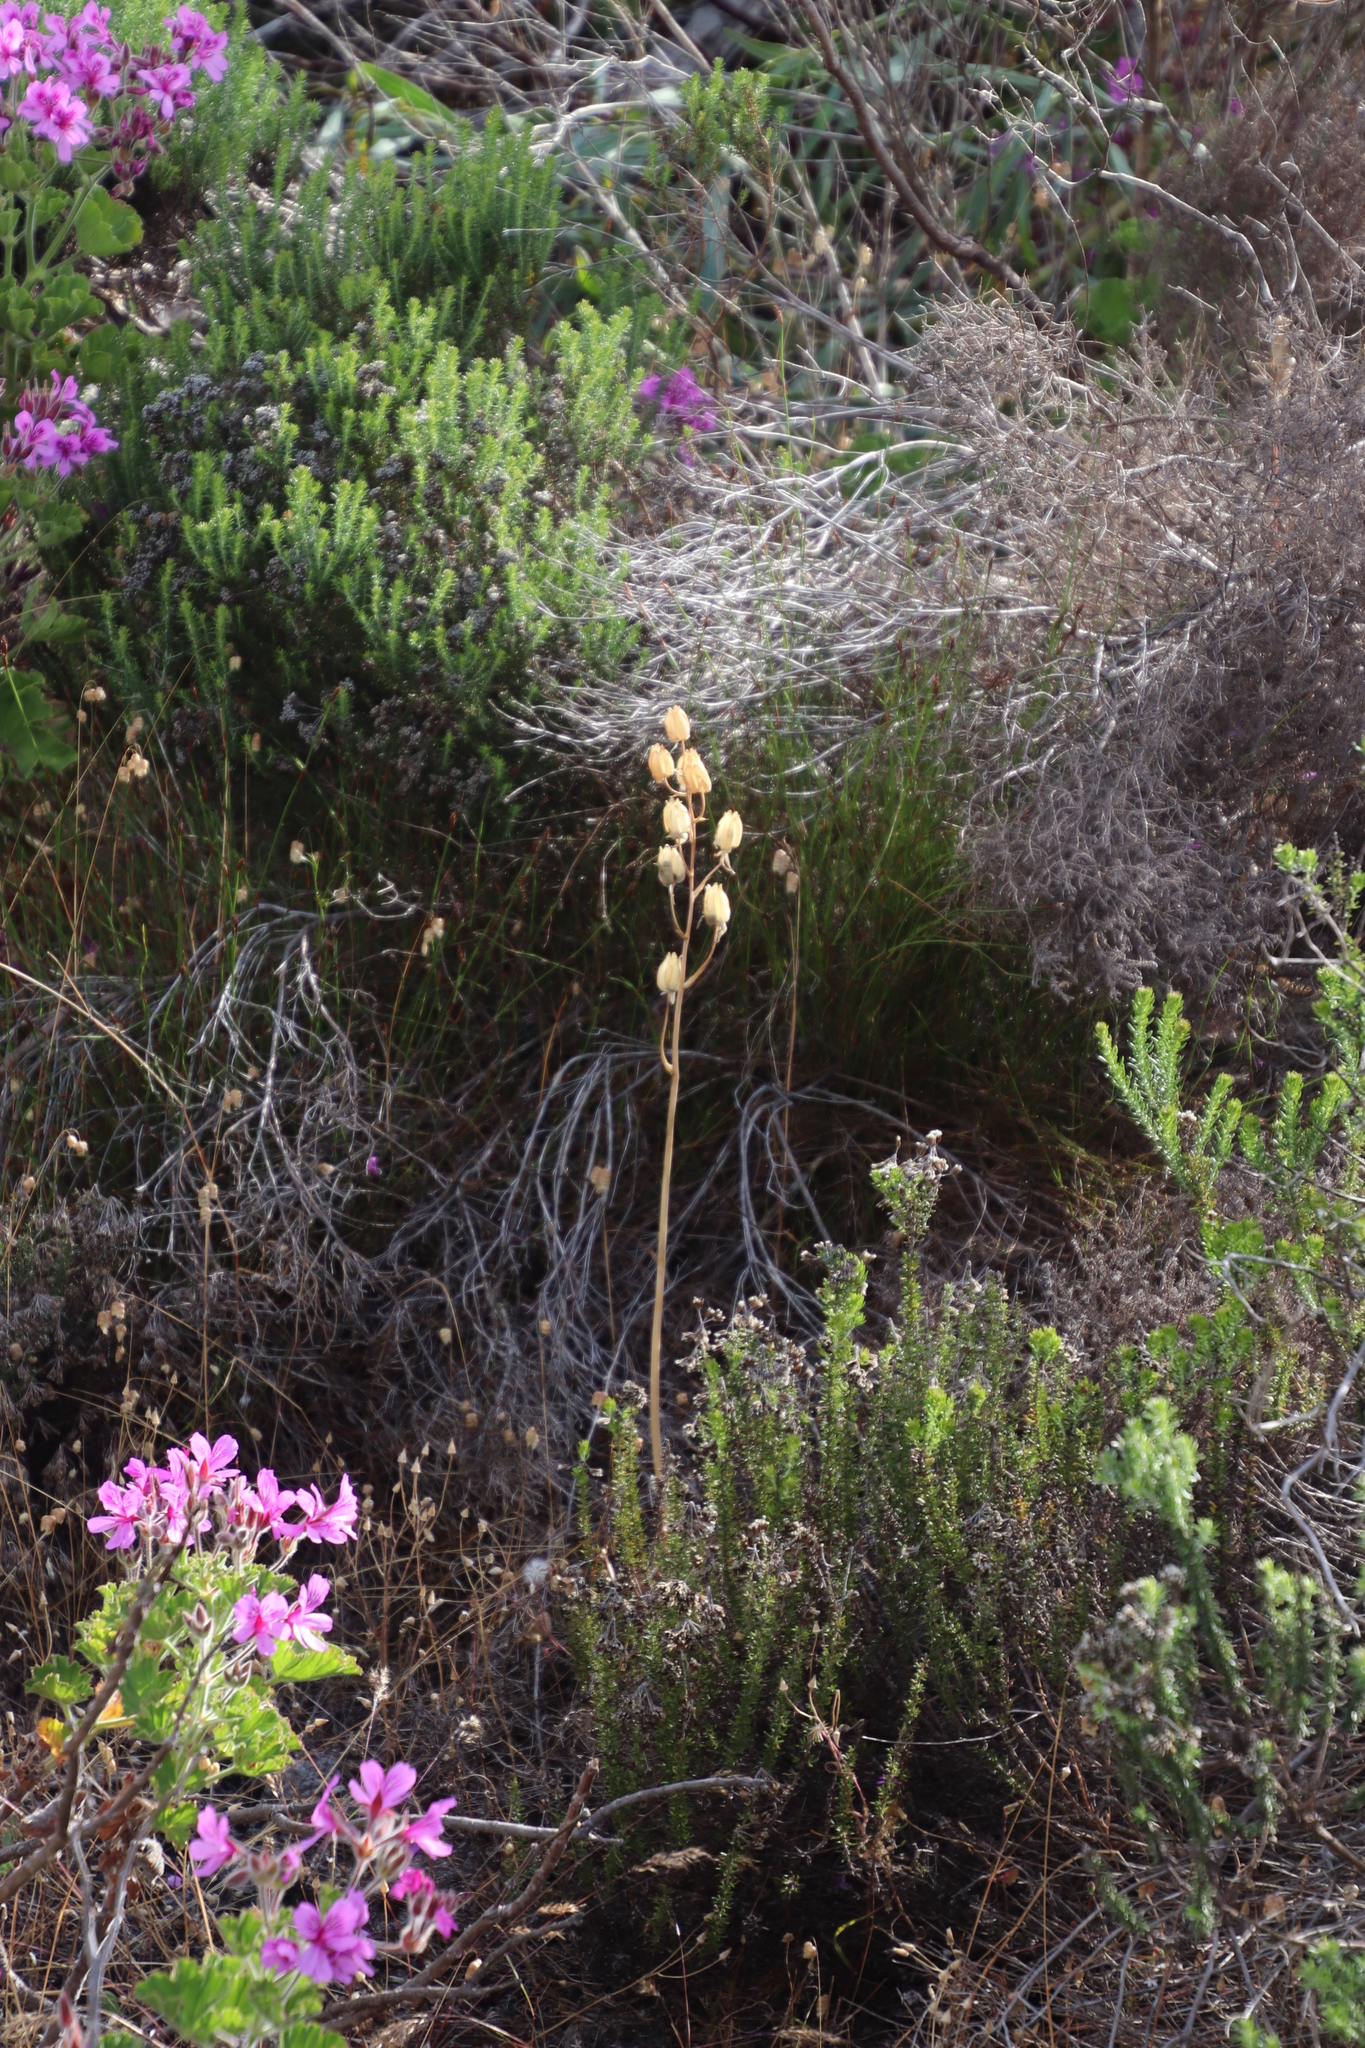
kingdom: Plantae
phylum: Tracheophyta
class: Liliopsida
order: Asparagales
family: Asparagaceae
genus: Albuca
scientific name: Albuca cooperi
